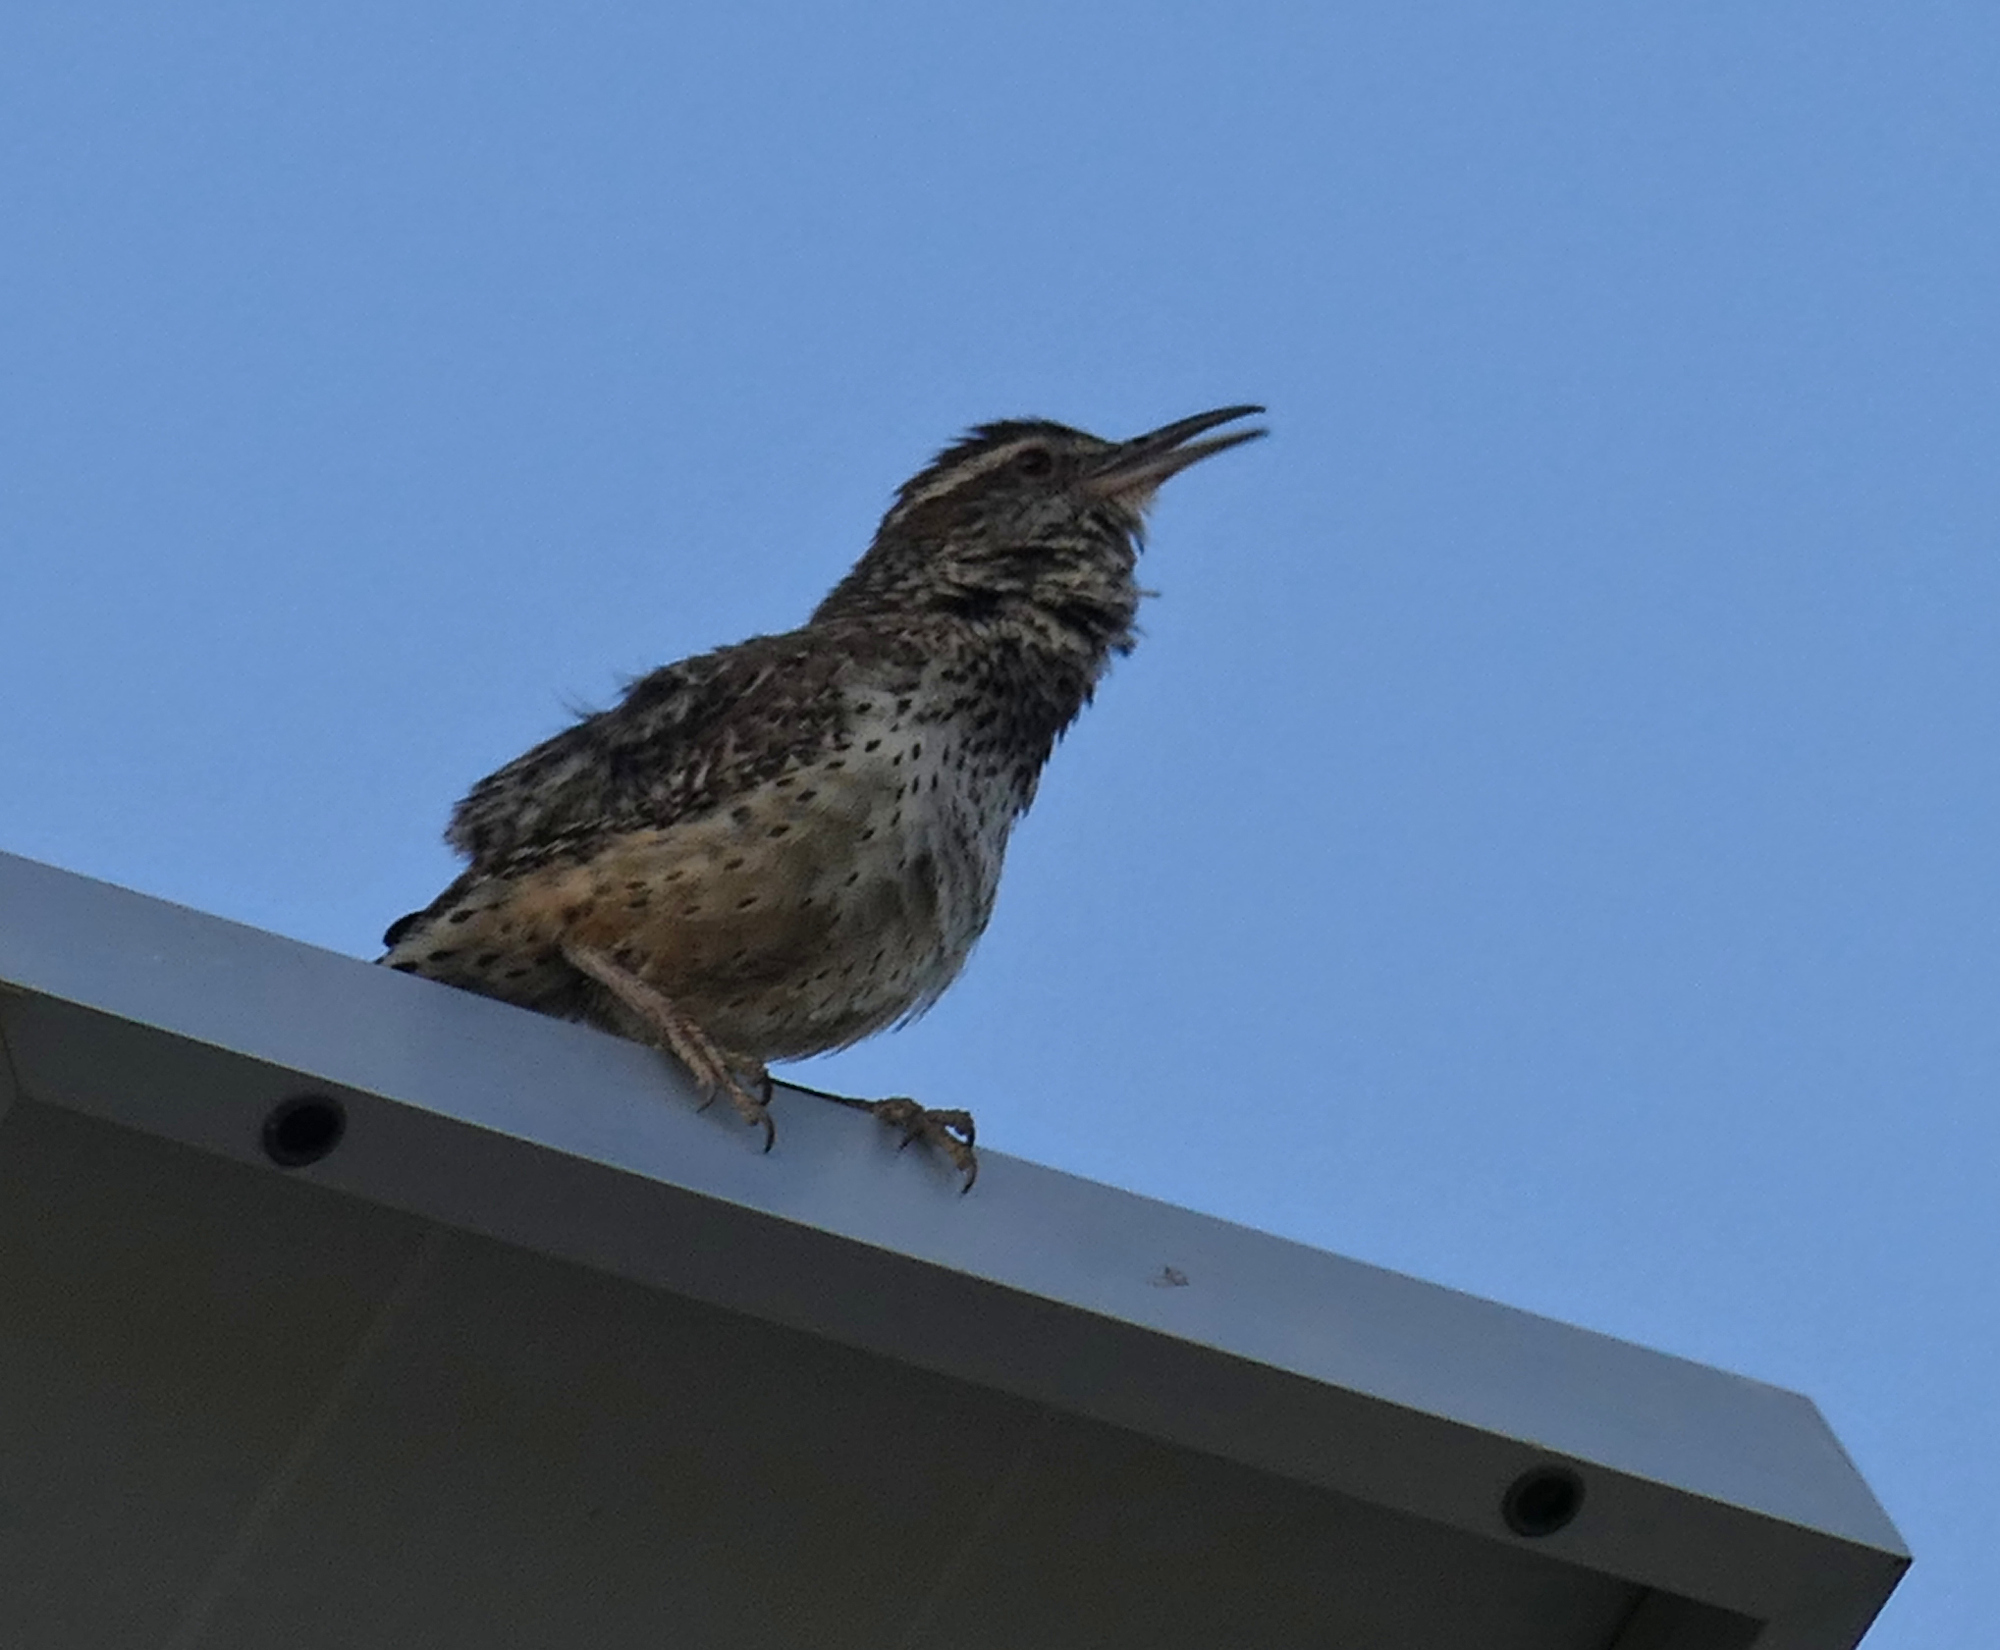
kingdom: Animalia
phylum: Chordata
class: Aves
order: Passeriformes
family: Troglodytidae
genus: Campylorhynchus
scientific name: Campylorhynchus brunneicapillus
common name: Cactus wren
